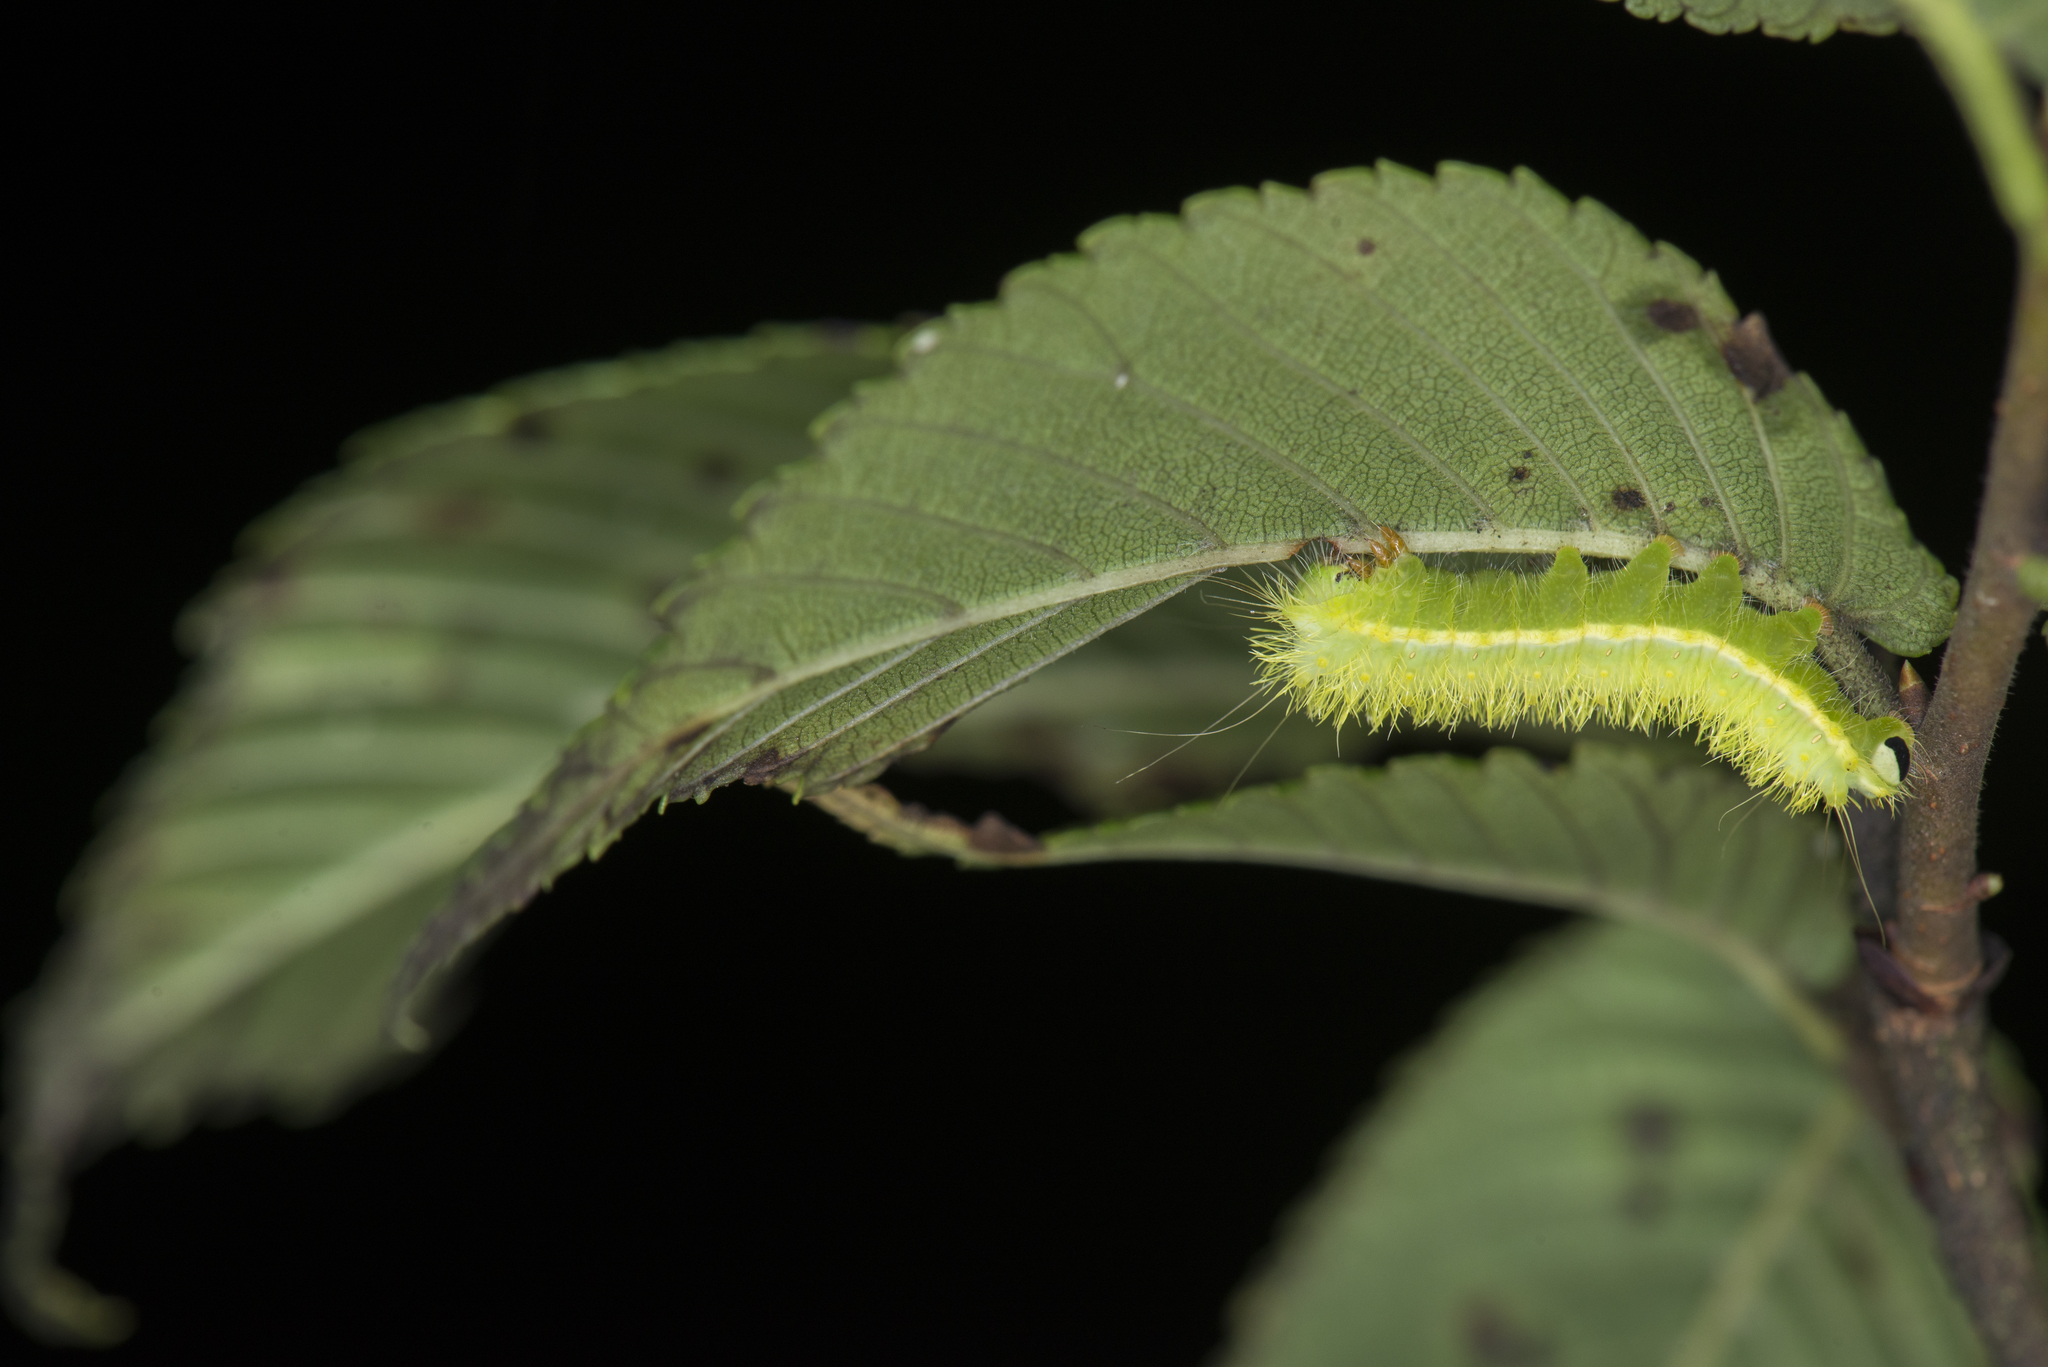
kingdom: Animalia
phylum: Arthropoda
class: Insecta
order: Lepidoptera
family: Saturniidae
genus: Saturnia
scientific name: Saturnia jonasii
